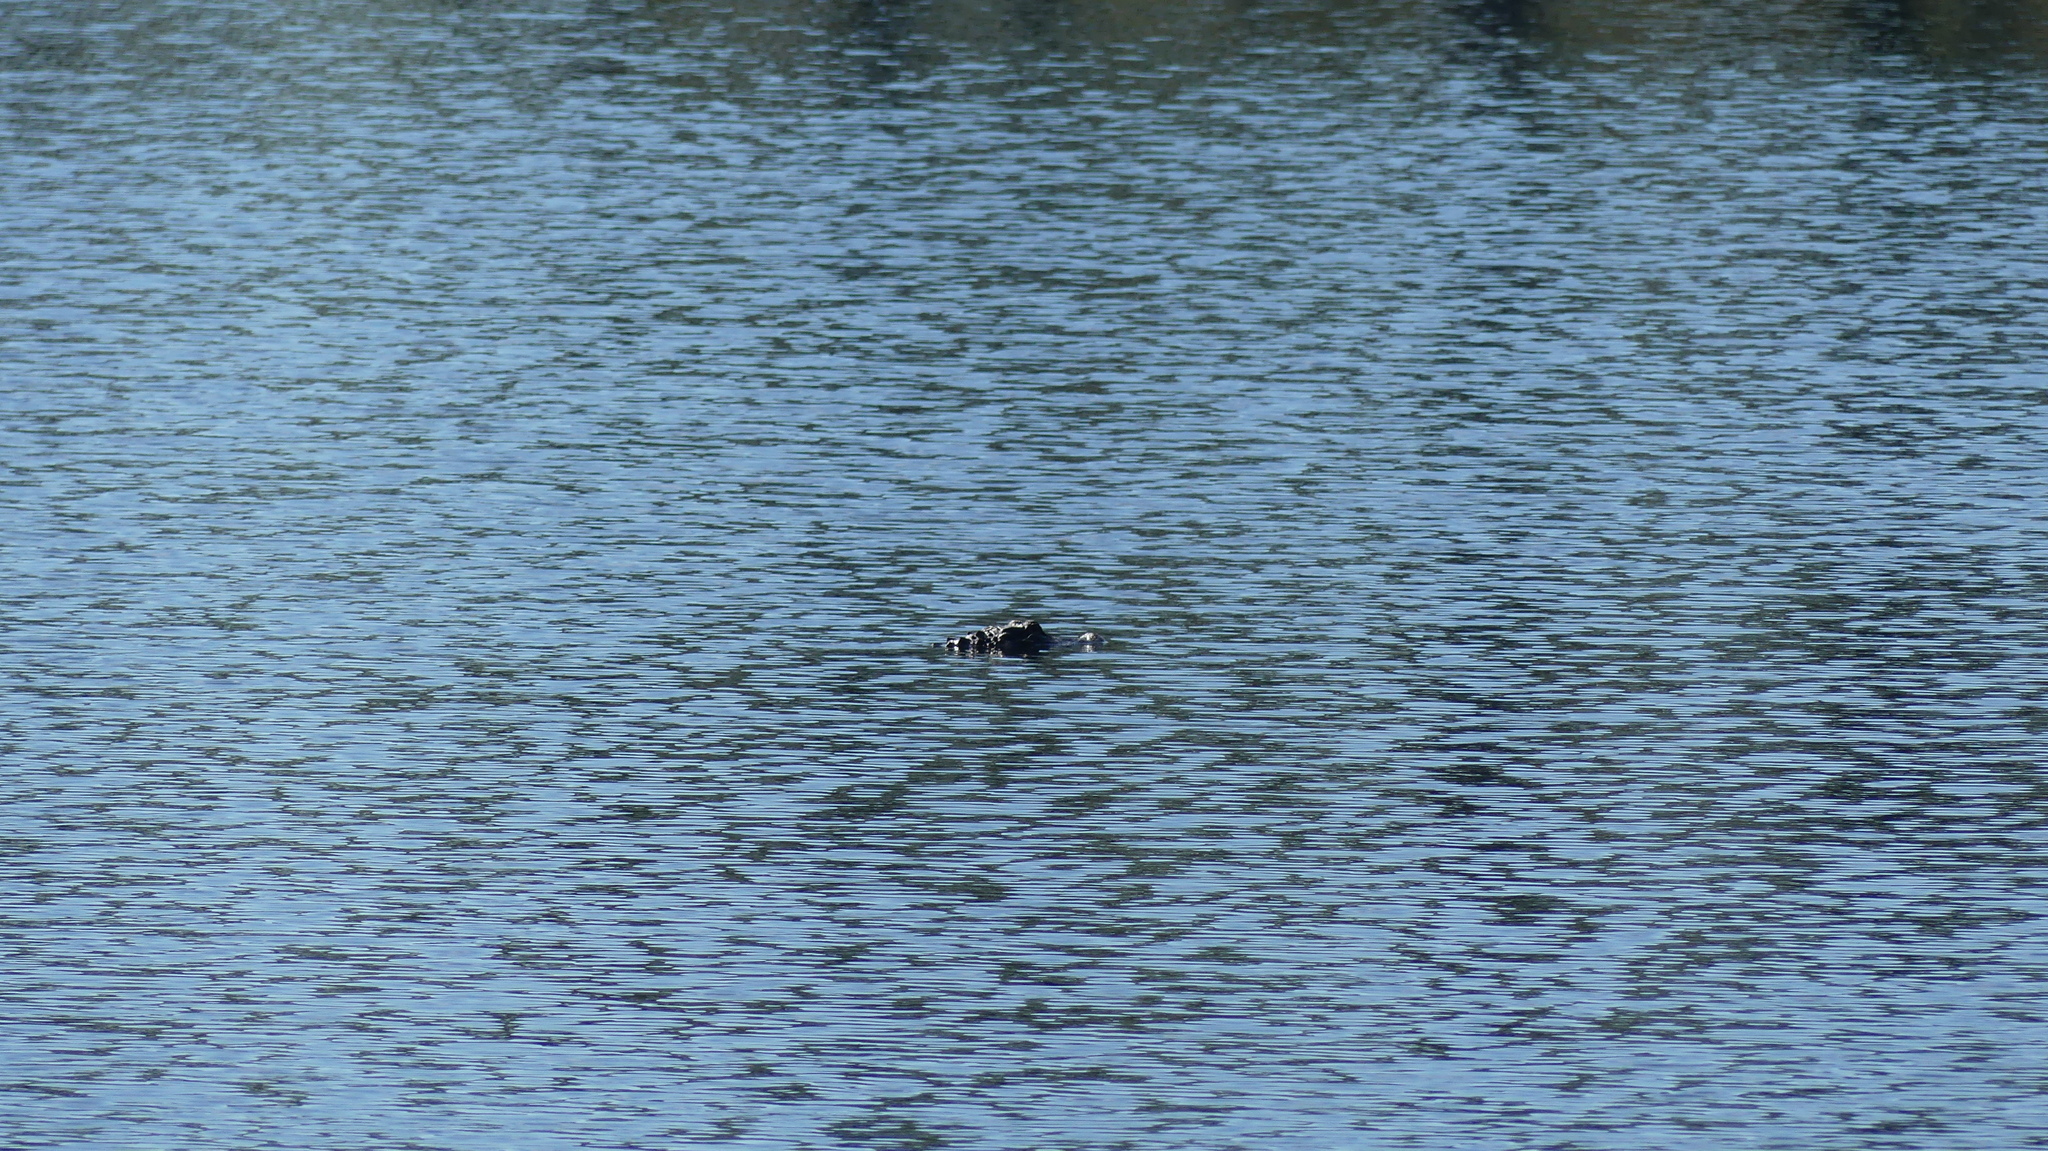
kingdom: Animalia
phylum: Chordata
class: Crocodylia
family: Alligatoridae
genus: Alligator
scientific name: Alligator mississippiensis
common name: American alligator
